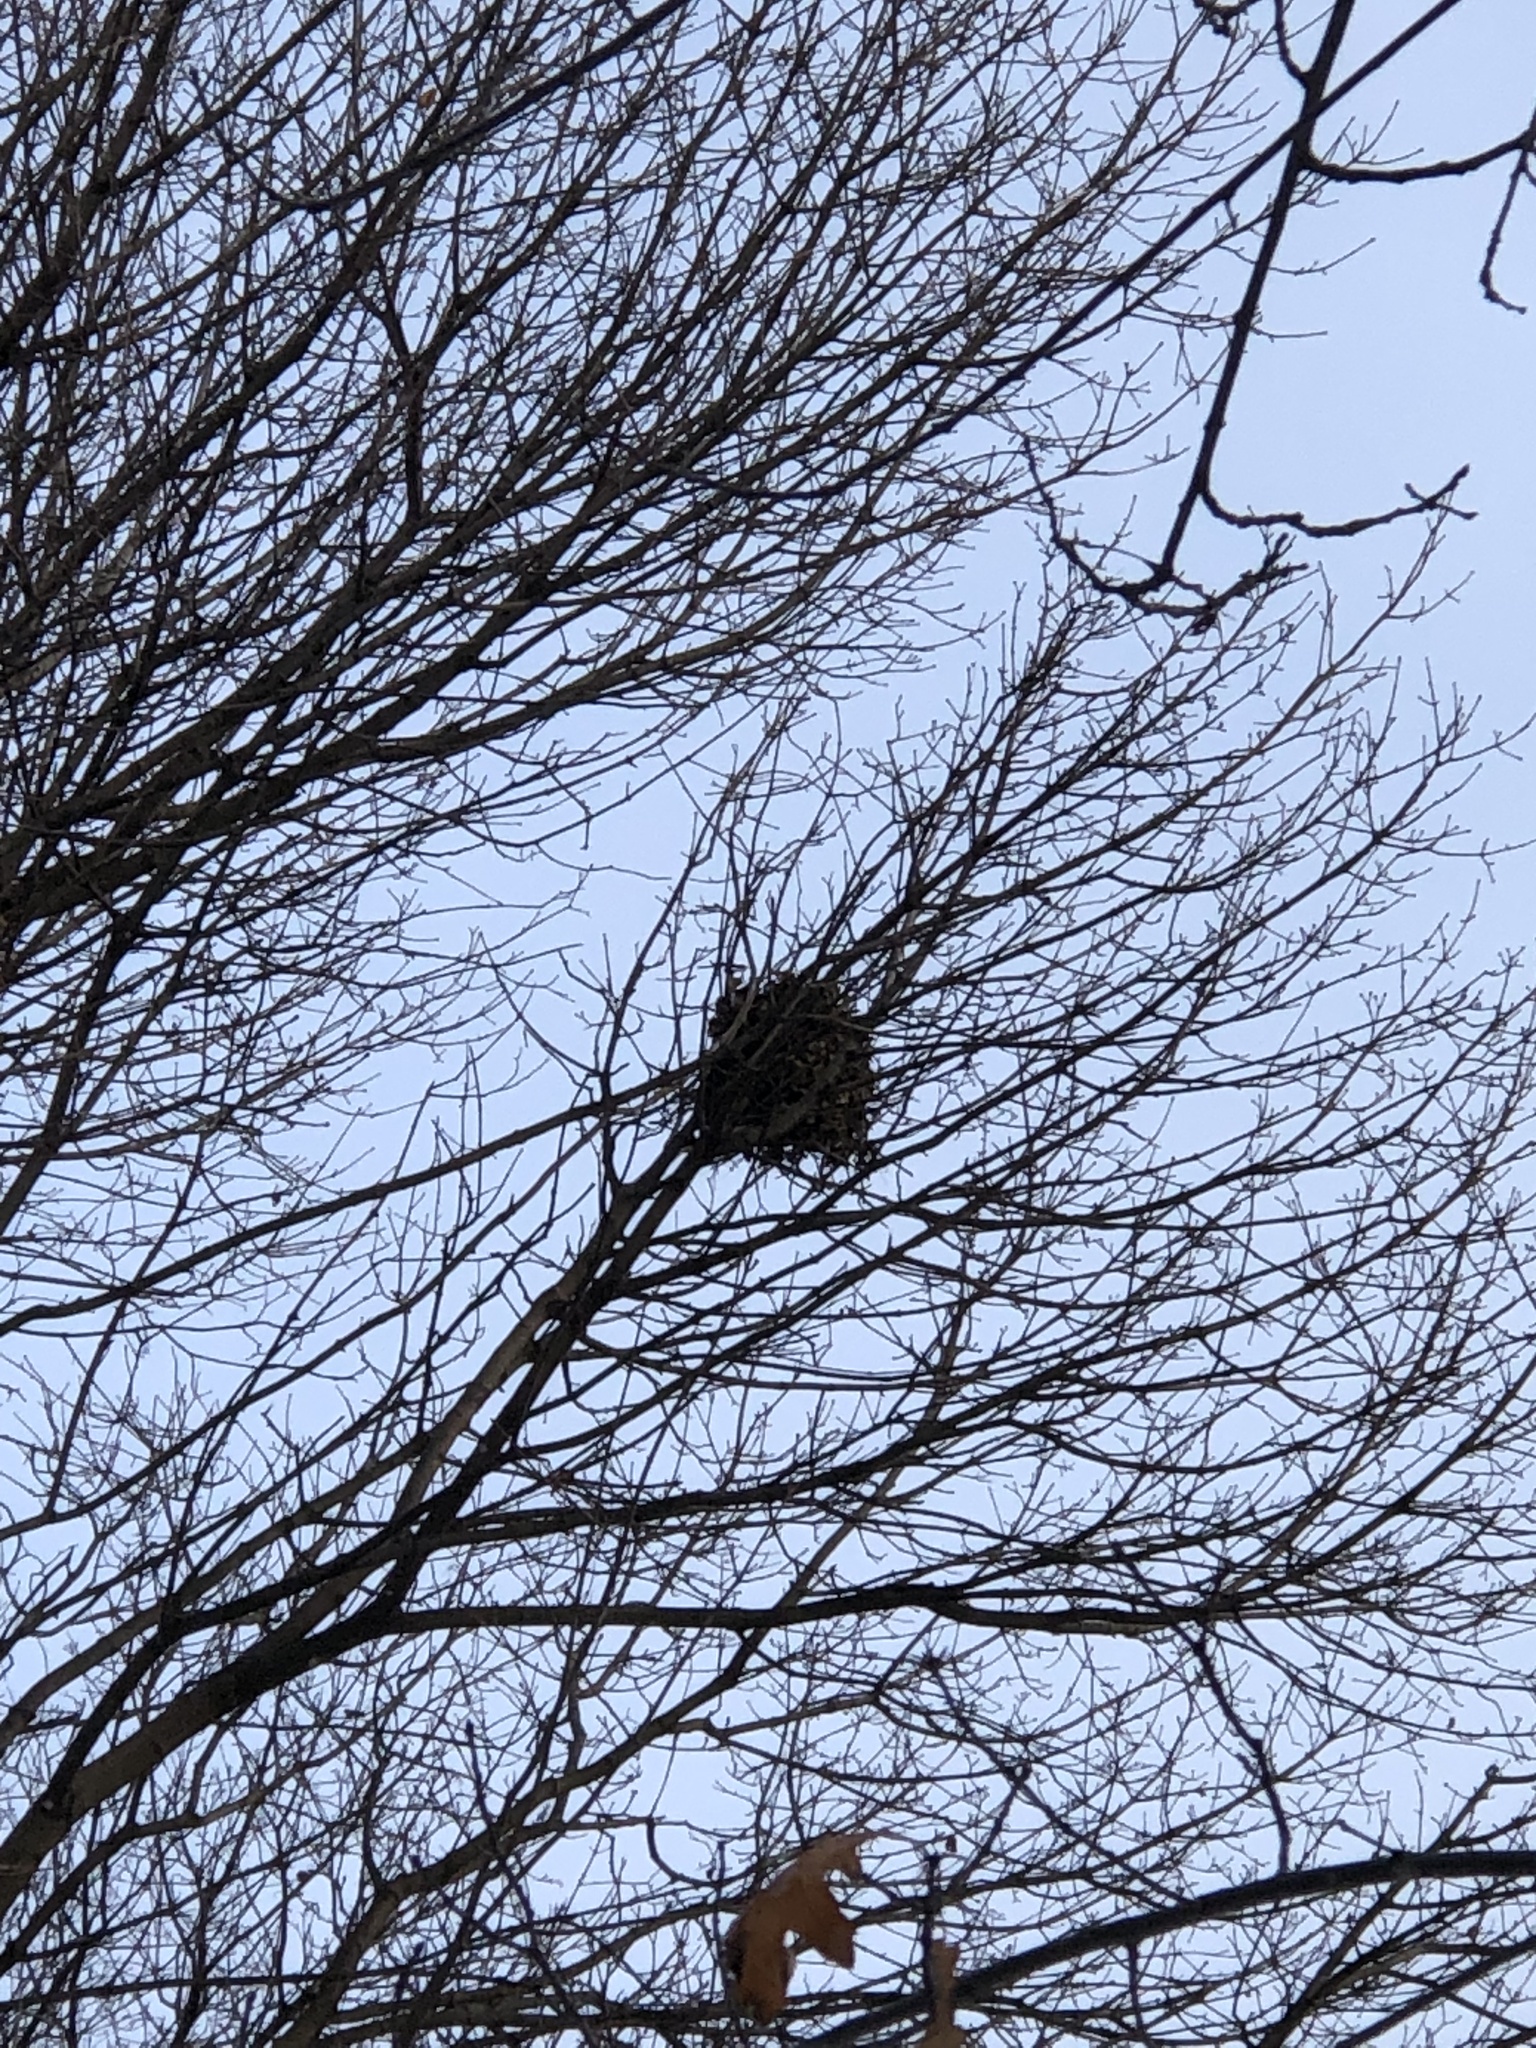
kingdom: Animalia
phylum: Chordata
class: Mammalia
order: Rodentia
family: Sciuridae
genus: Sciurus
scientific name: Sciurus carolinensis
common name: Eastern gray squirrel
